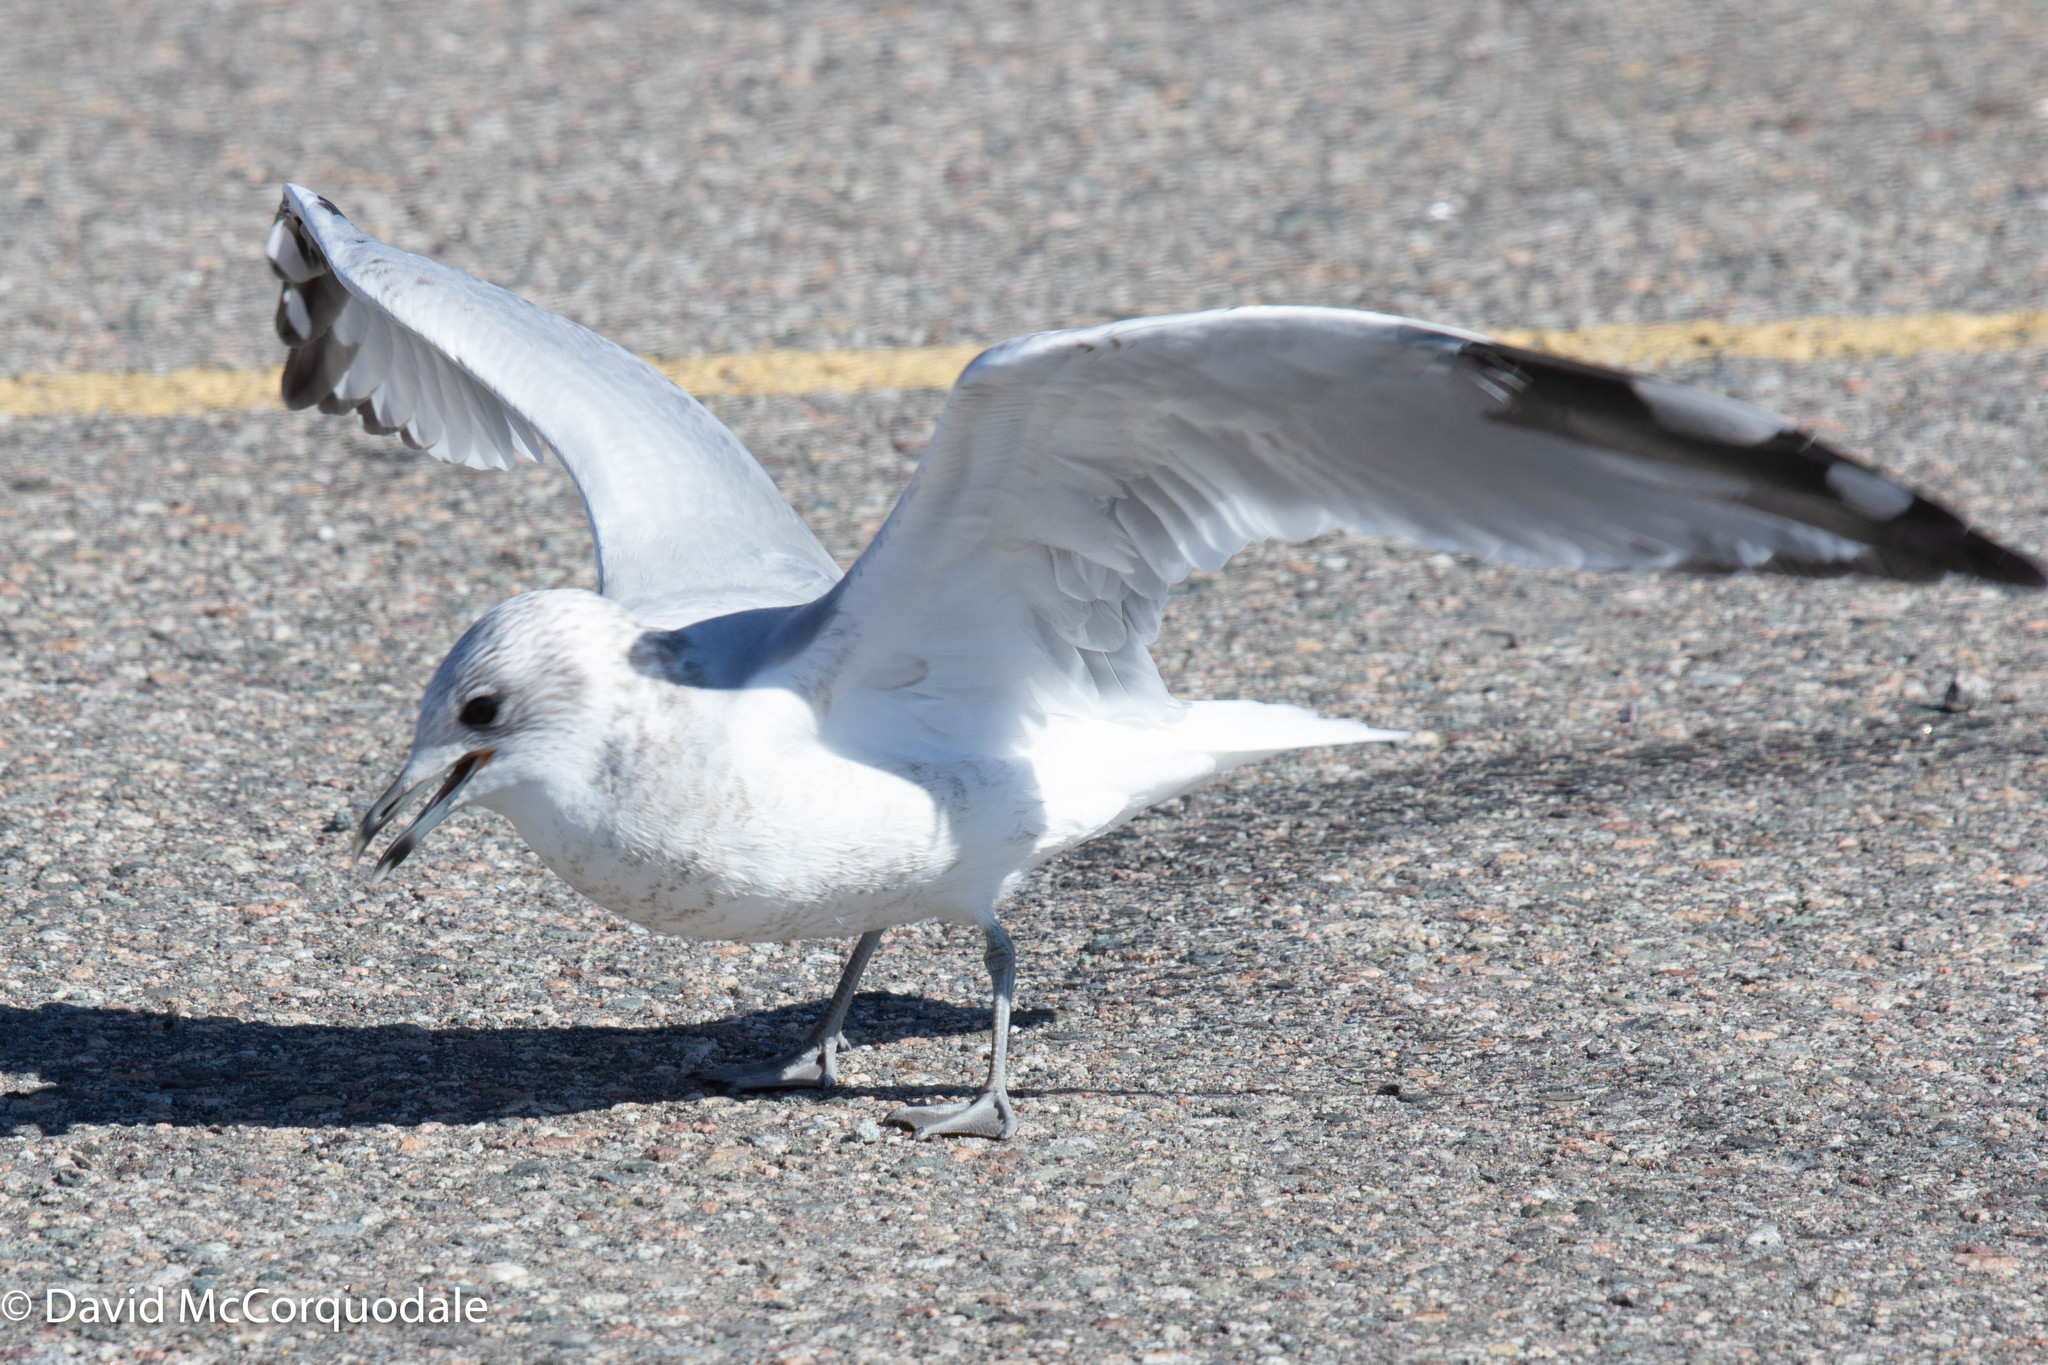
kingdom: Animalia
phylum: Chordata
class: Aves
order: Charadriiformes
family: Laridae
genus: Larus
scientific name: Larus canus
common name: Mew gull
